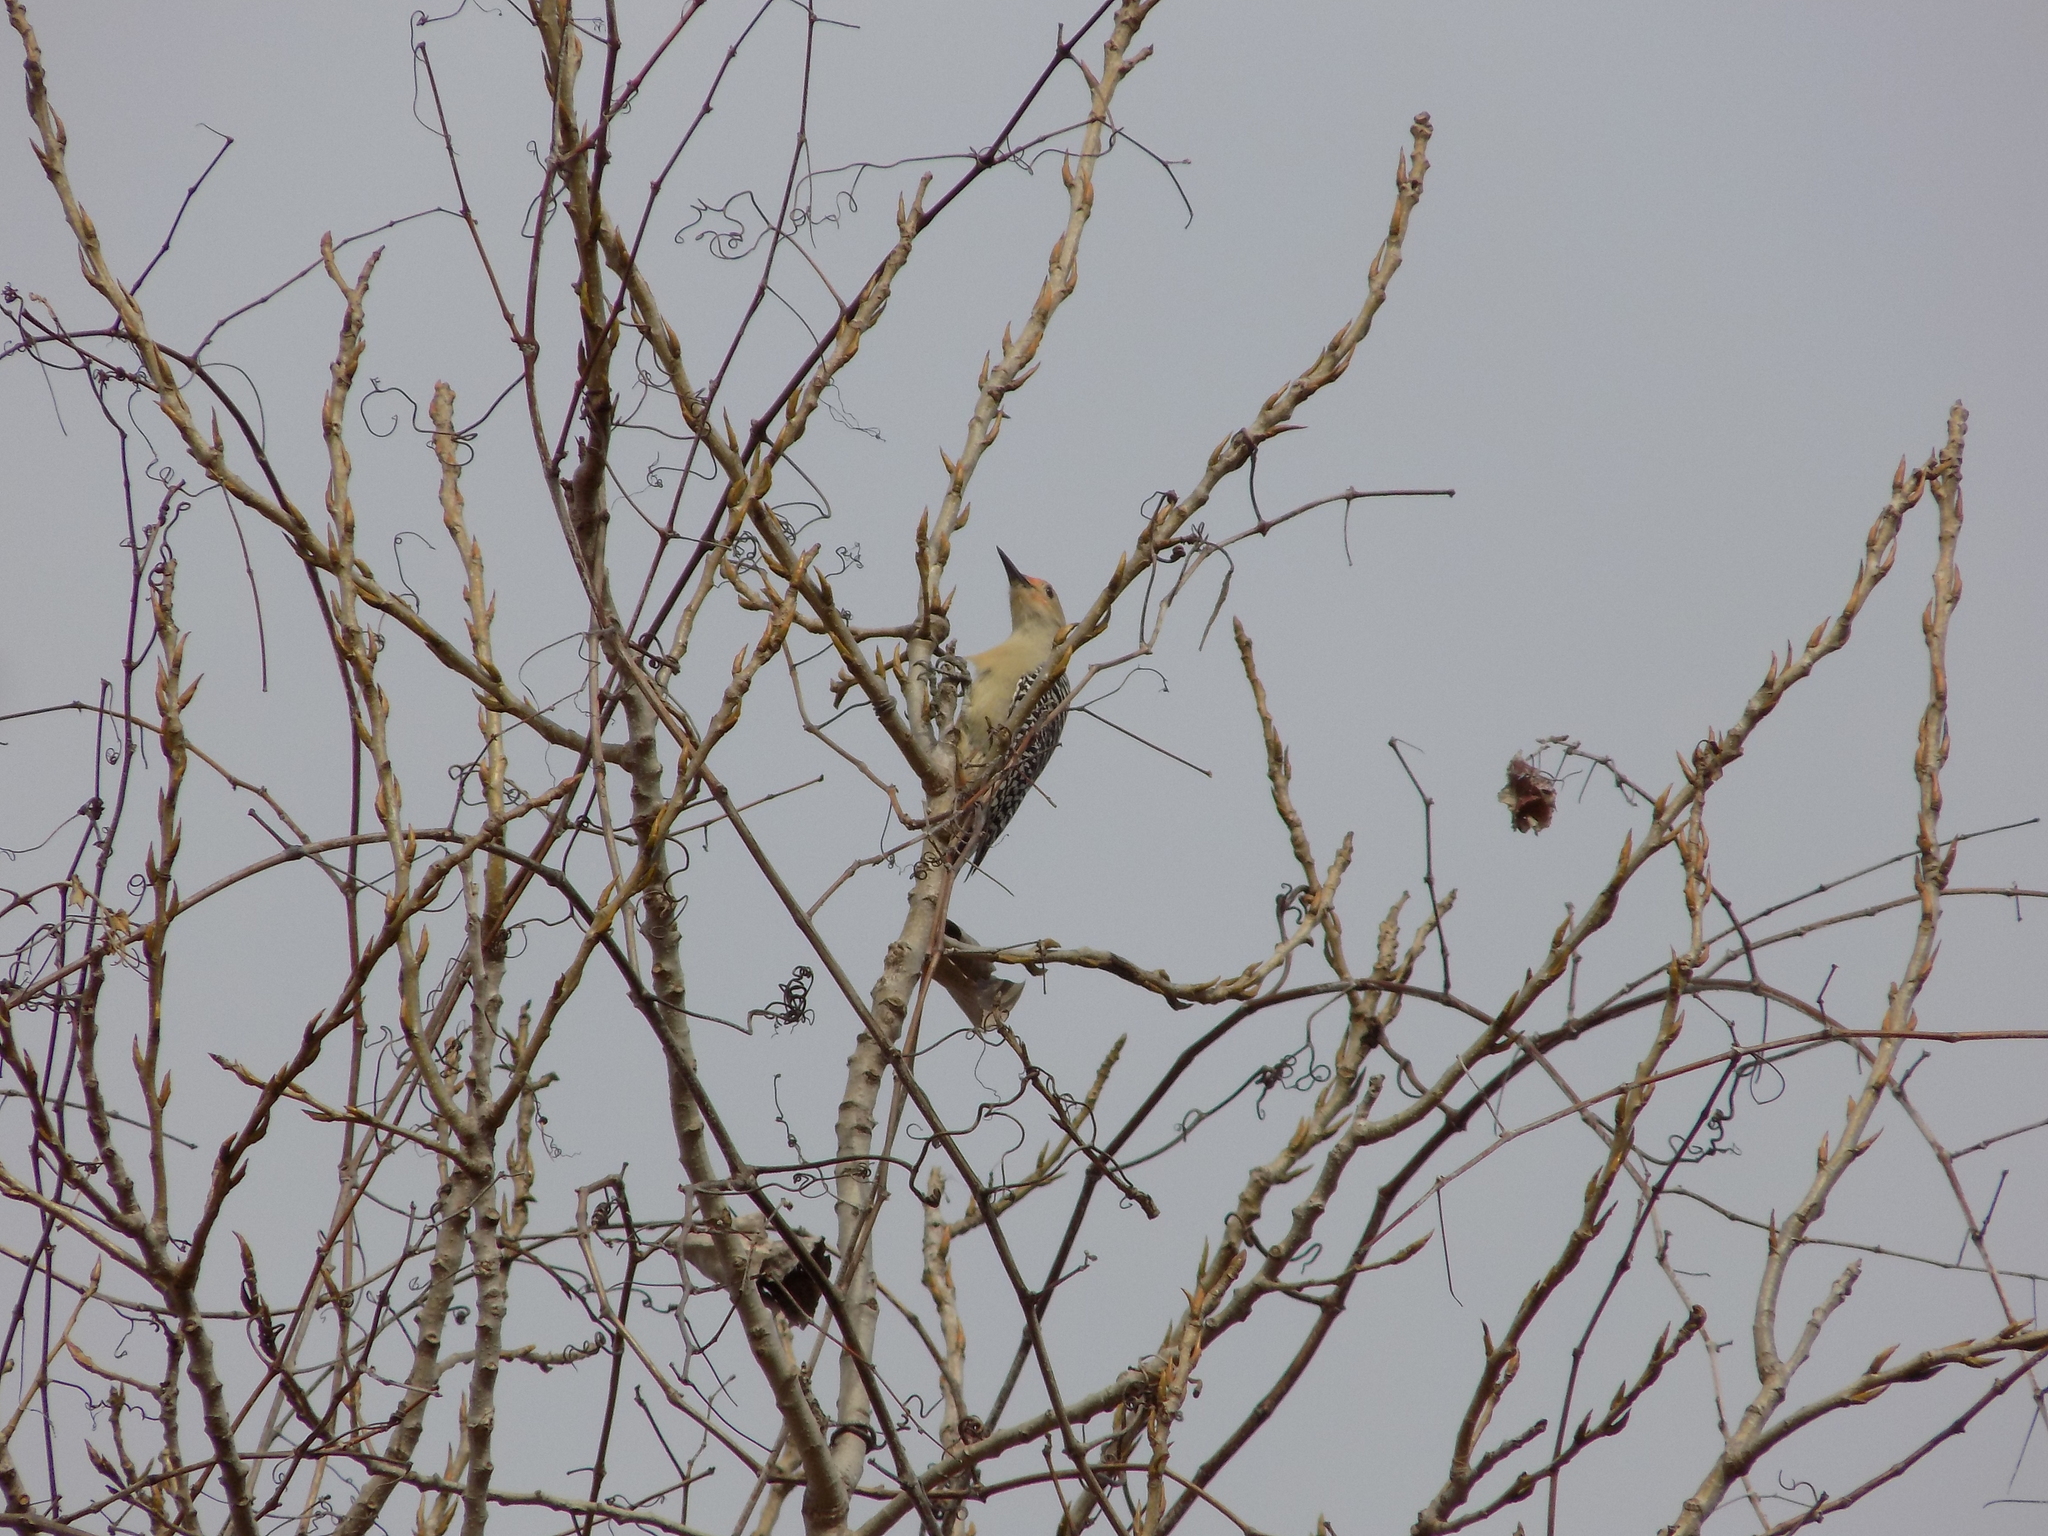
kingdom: Animalia
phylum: Chordata
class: Aves
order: Piciformes
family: Picidae
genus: Melanerpes
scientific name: Melanerpes carolinus
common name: Red-bellied woodpecker
